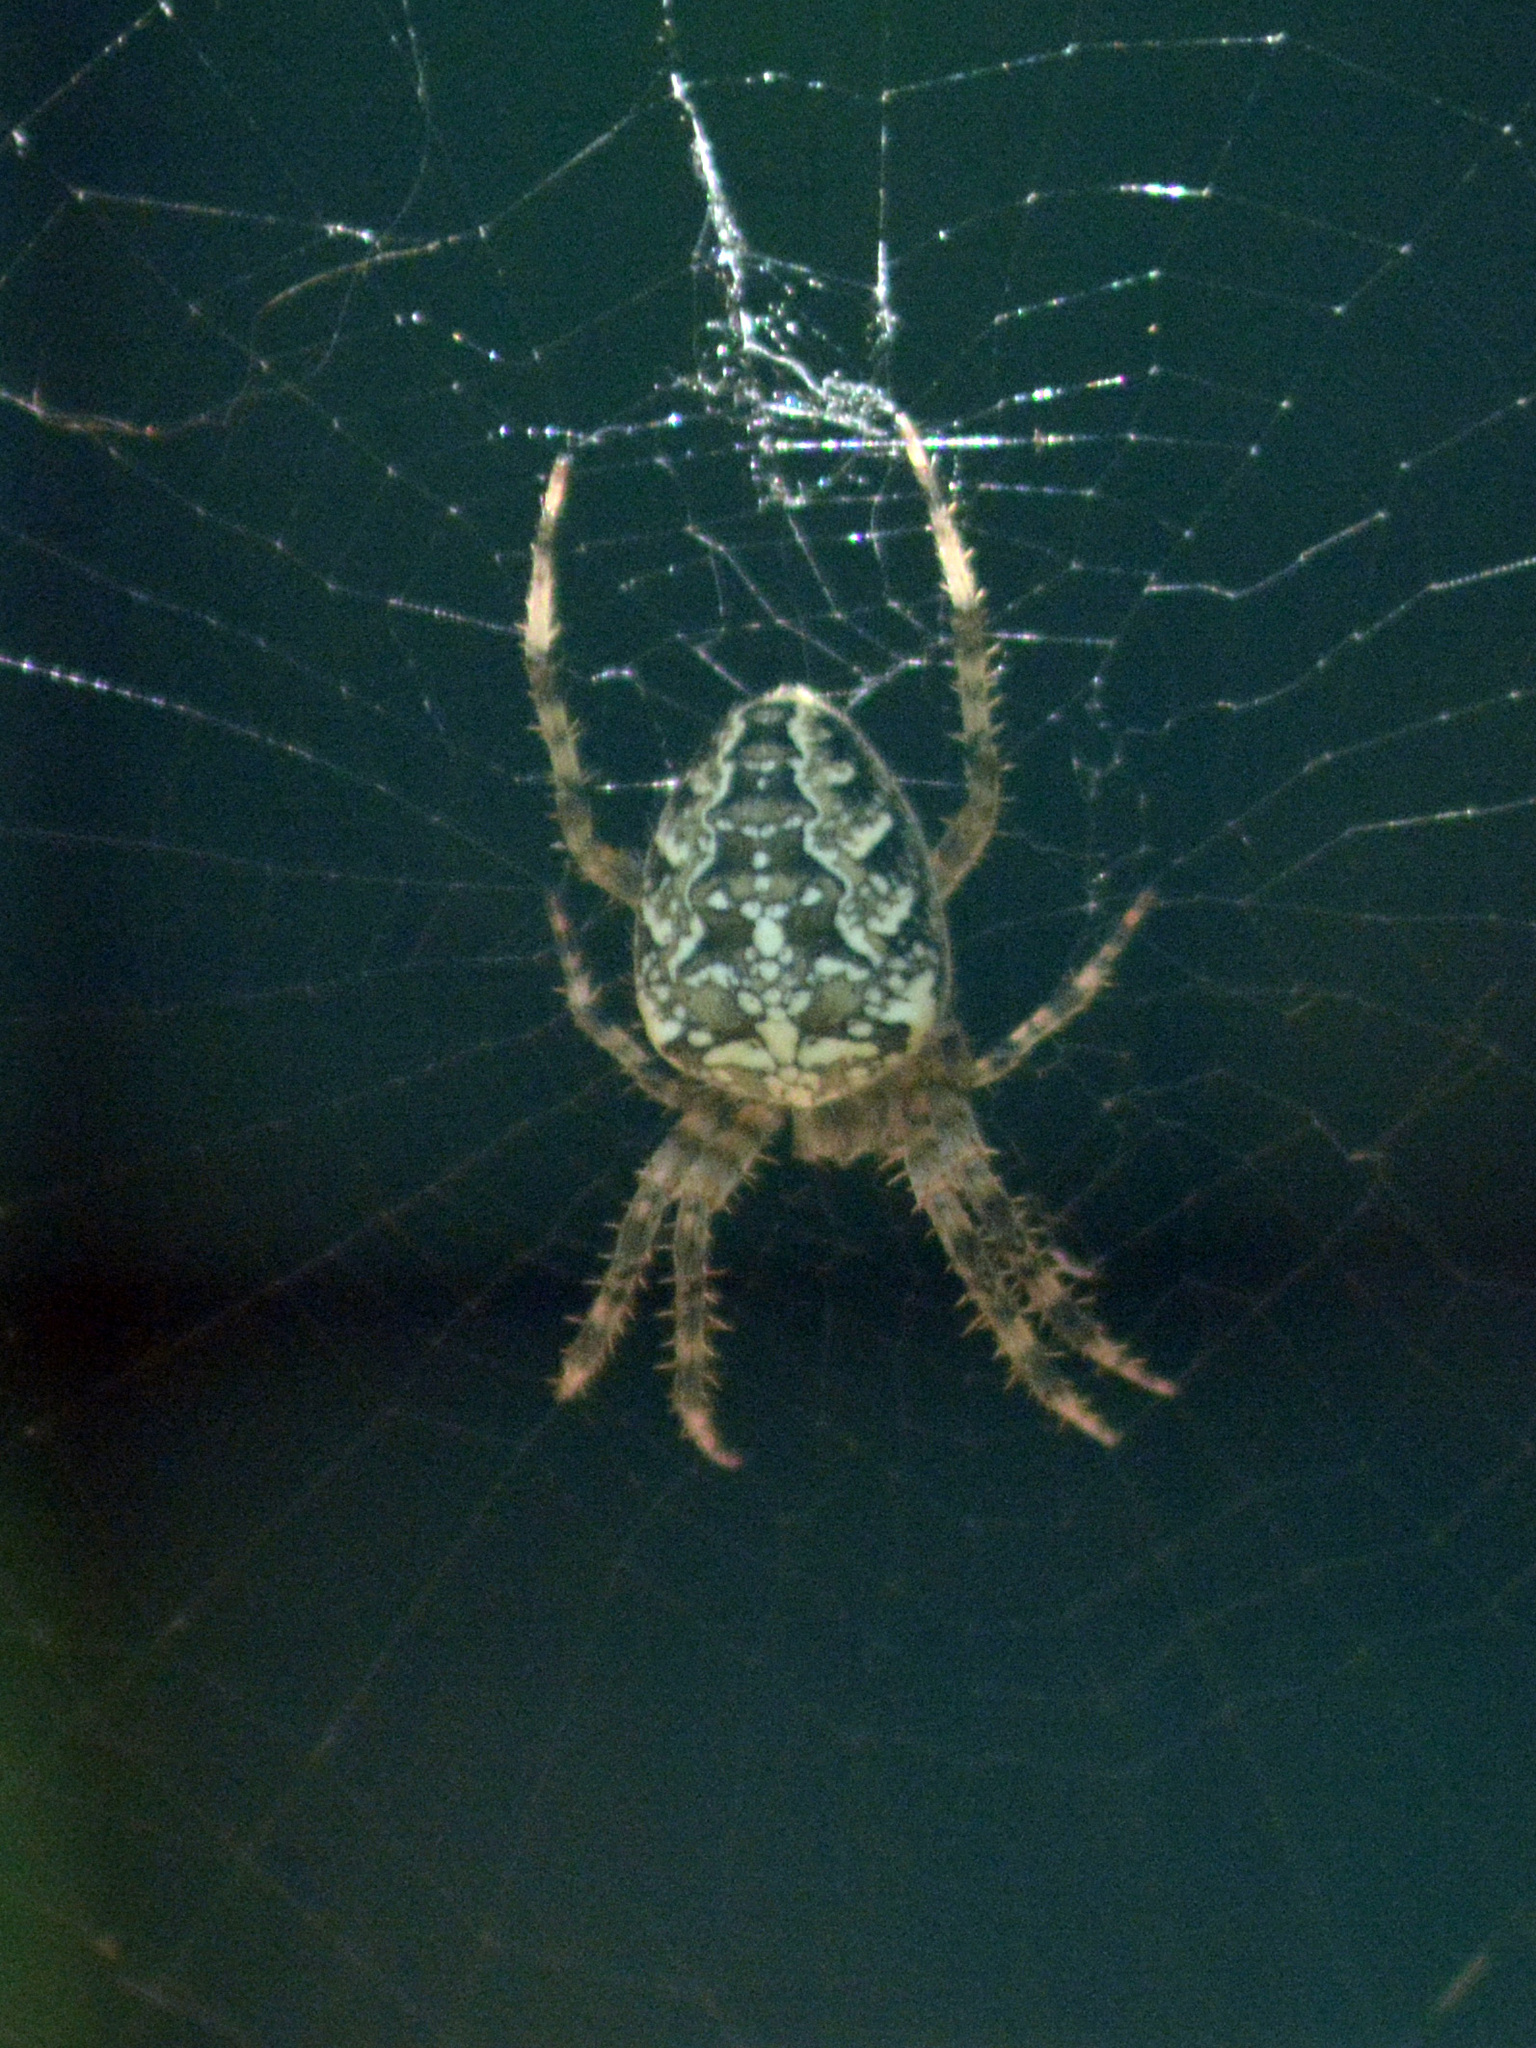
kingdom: Animalia
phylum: Arthropoda
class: Arachnida
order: Araneae
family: Araneidae
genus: Araneus
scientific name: Araneus diadematus
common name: Cross orbweaver
